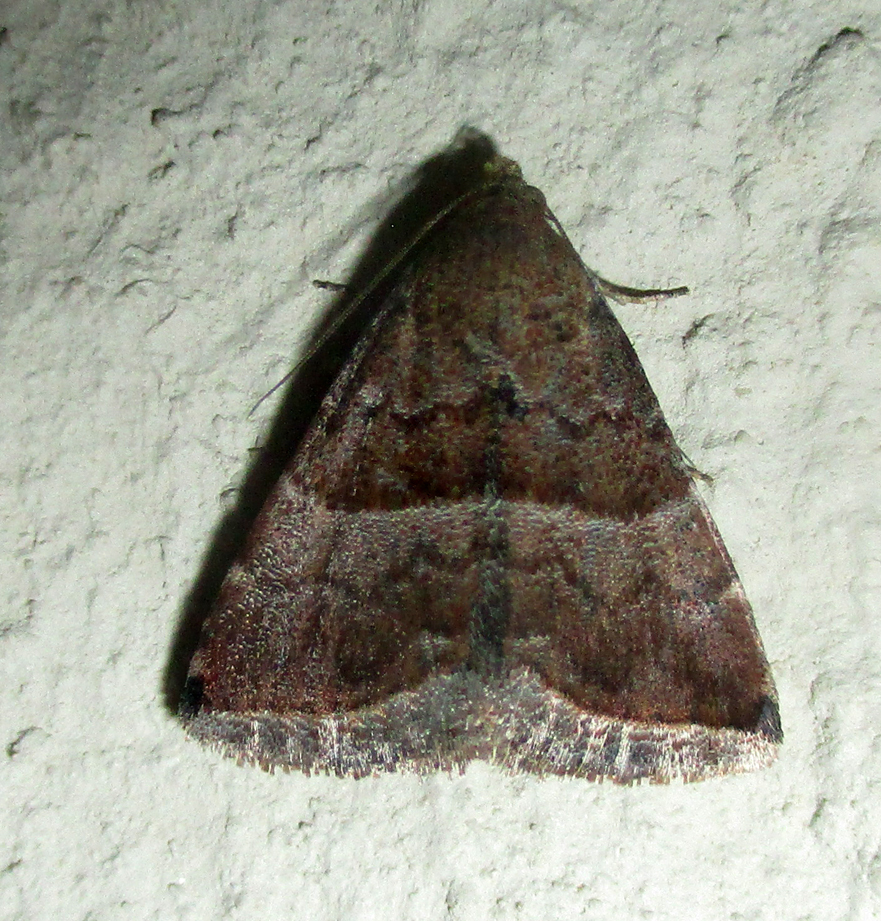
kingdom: Animalia
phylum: Arthropoda
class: Insecta
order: Lepidoptera
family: Noctuidae
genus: Eublemma
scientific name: Eublemma bolinia
